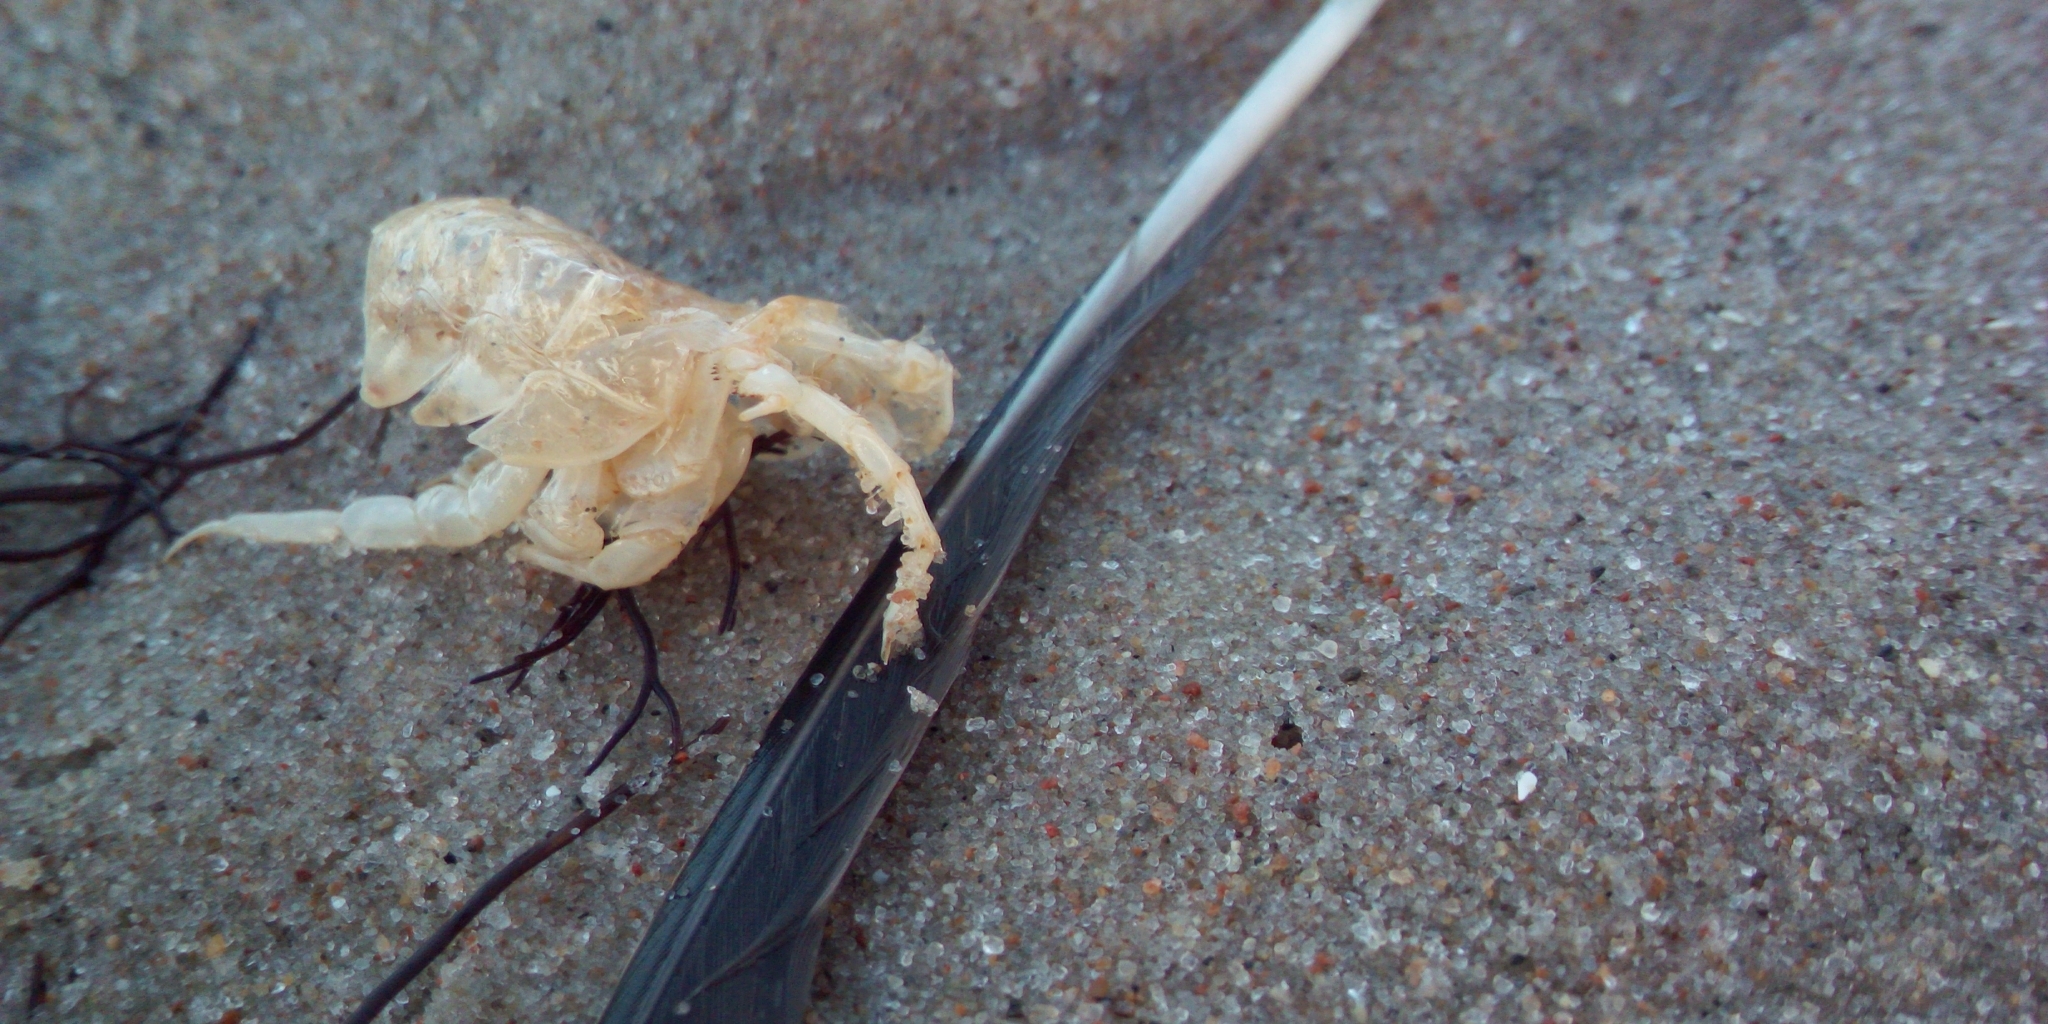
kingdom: Animalia
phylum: Arthropoda
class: Malacostraca
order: Isopoda
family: Chaetiliidae
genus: Saduria
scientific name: Saduria entomon
